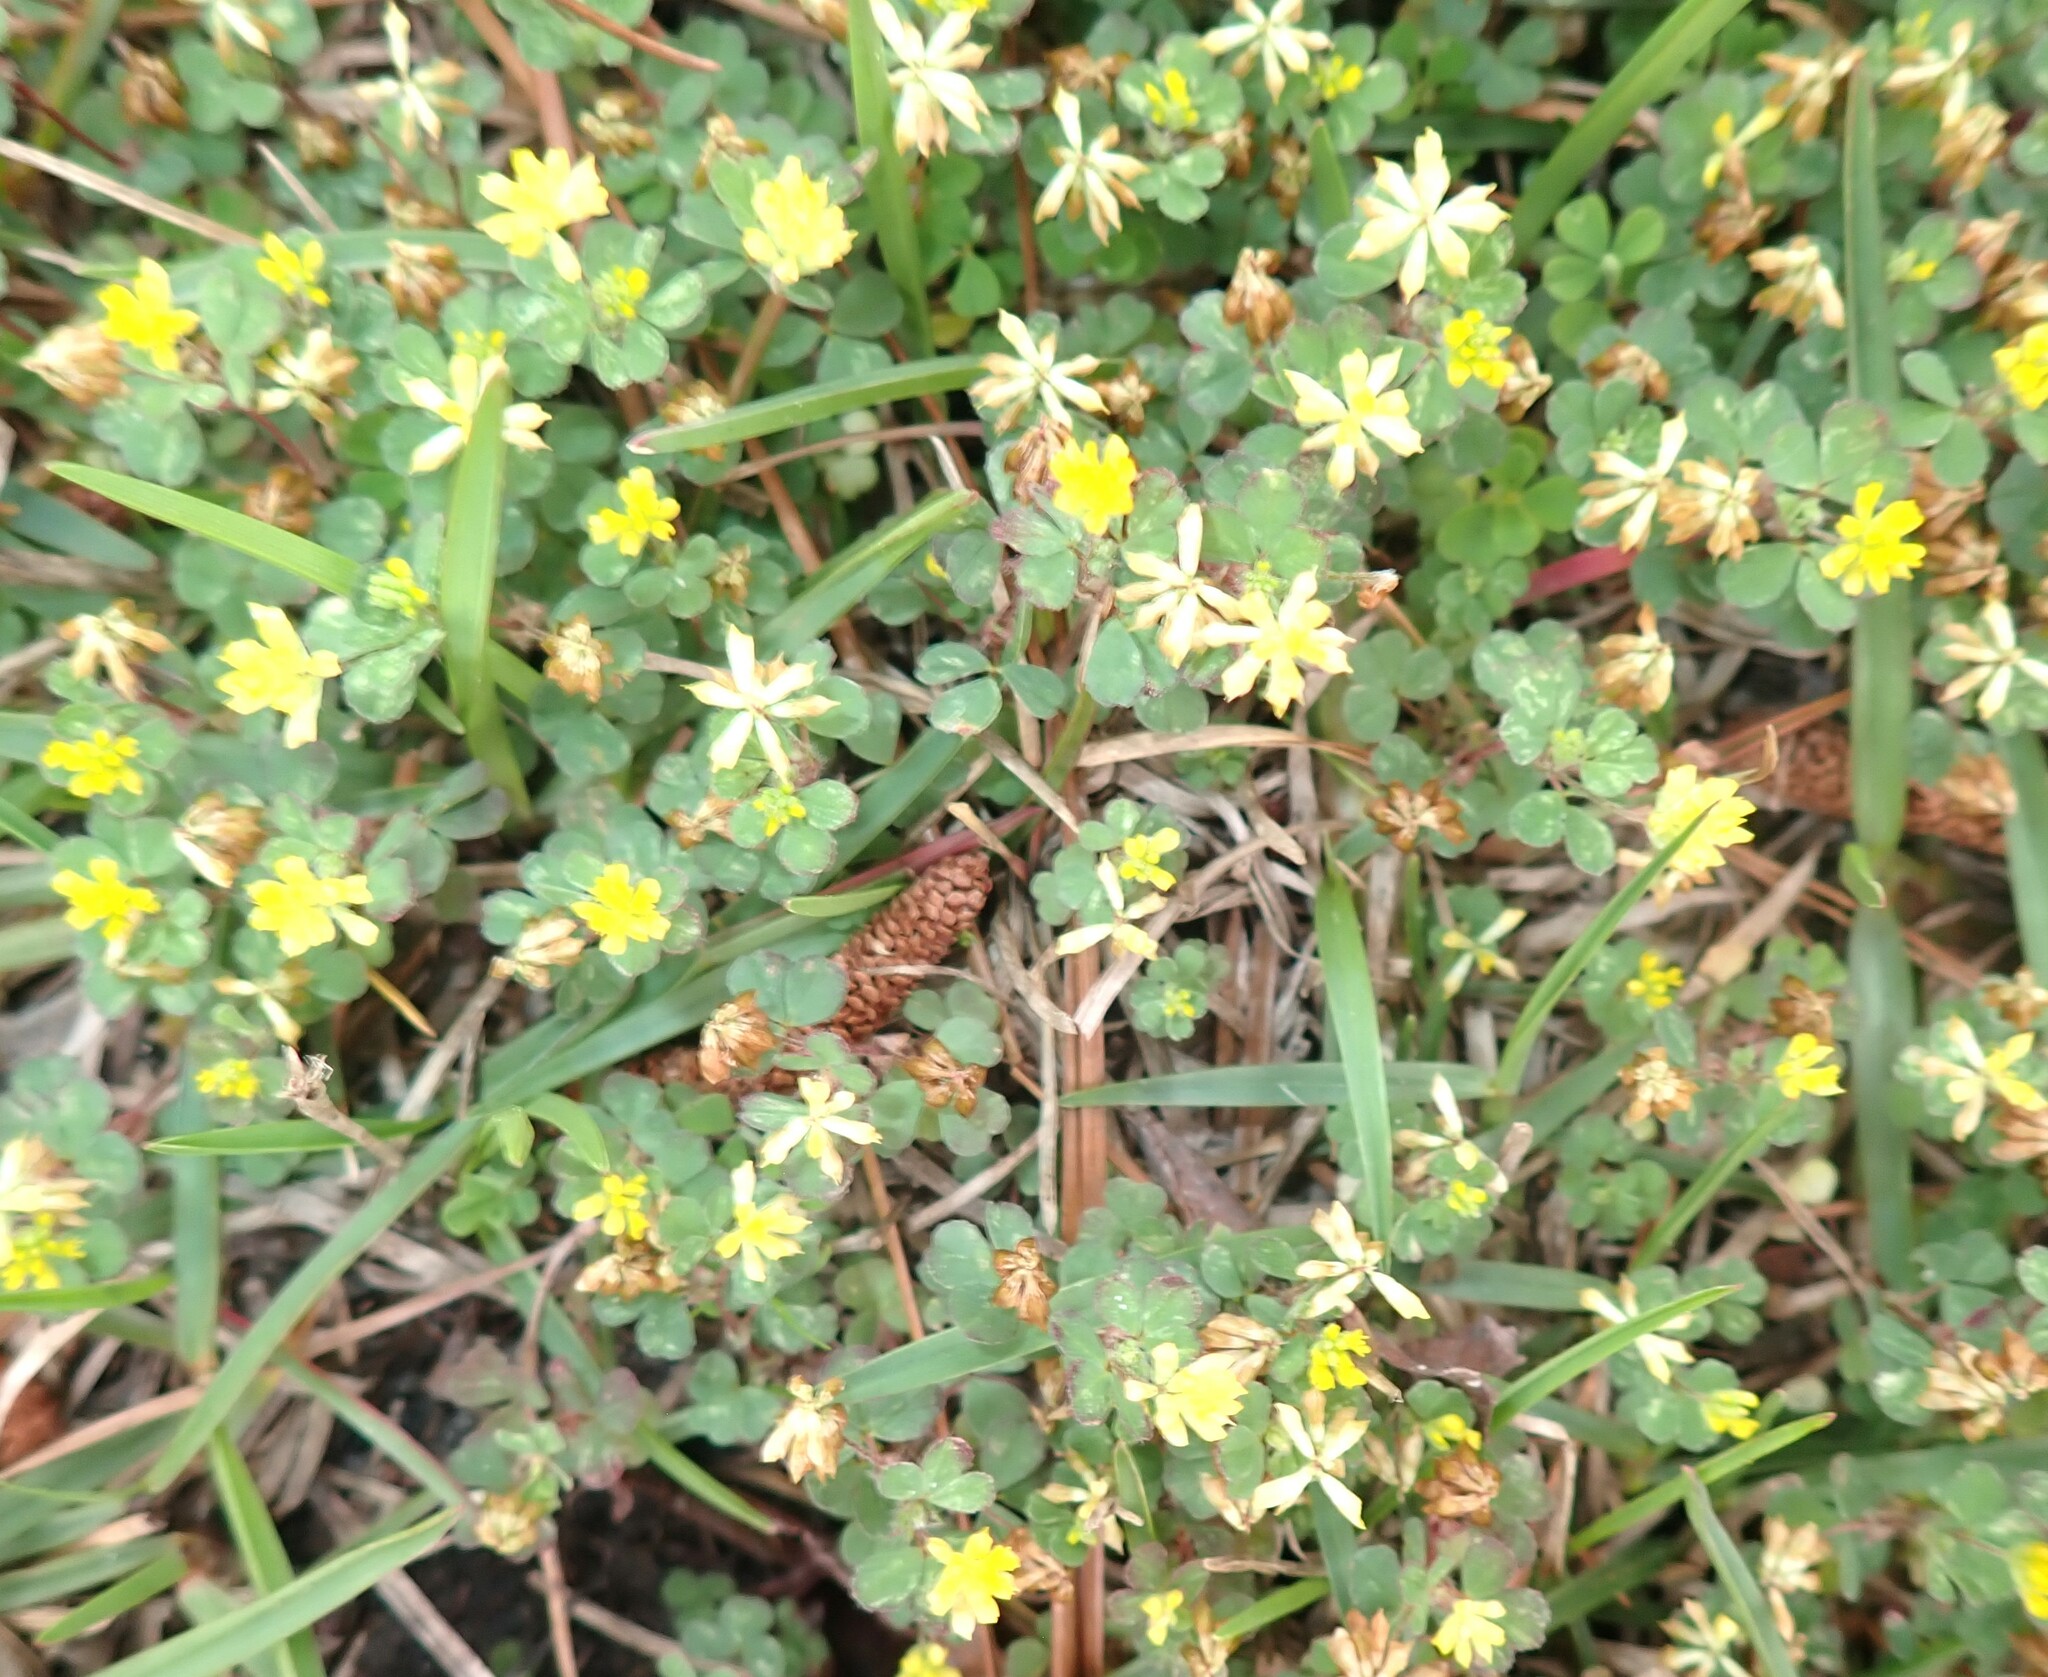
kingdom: Plantae
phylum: Tracheophyta
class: Magnoliopsida
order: Fabales
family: Fabaceae
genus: Trifolium
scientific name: Trifolium dubium
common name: Suckling clover
